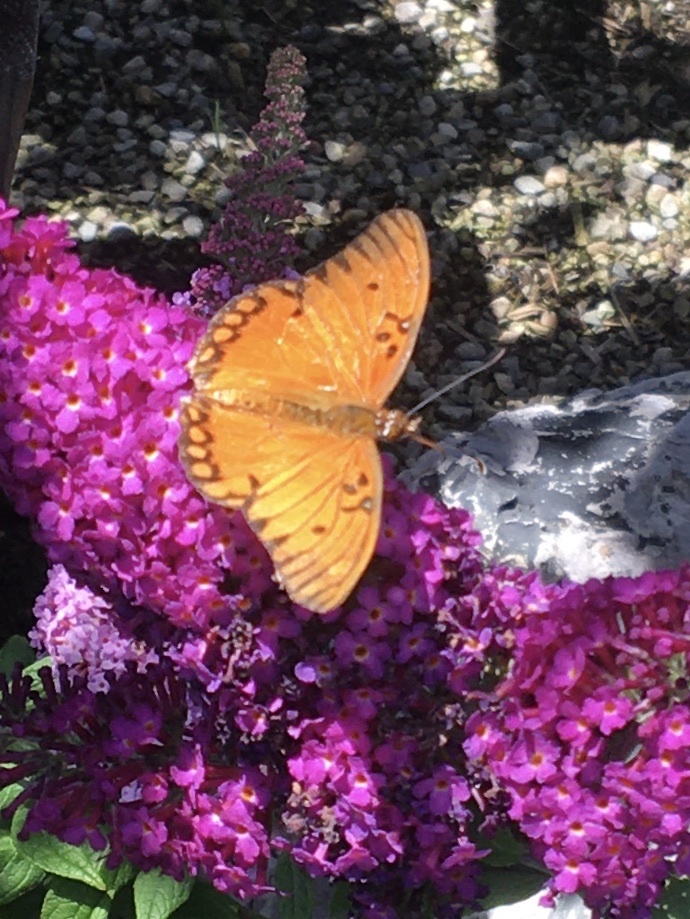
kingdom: Animalia
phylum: Arthropoda
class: Insecta
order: Lepidoptera
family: Nymphalidae
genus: Dione
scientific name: Dione vanillae
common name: Gulf fritillary
